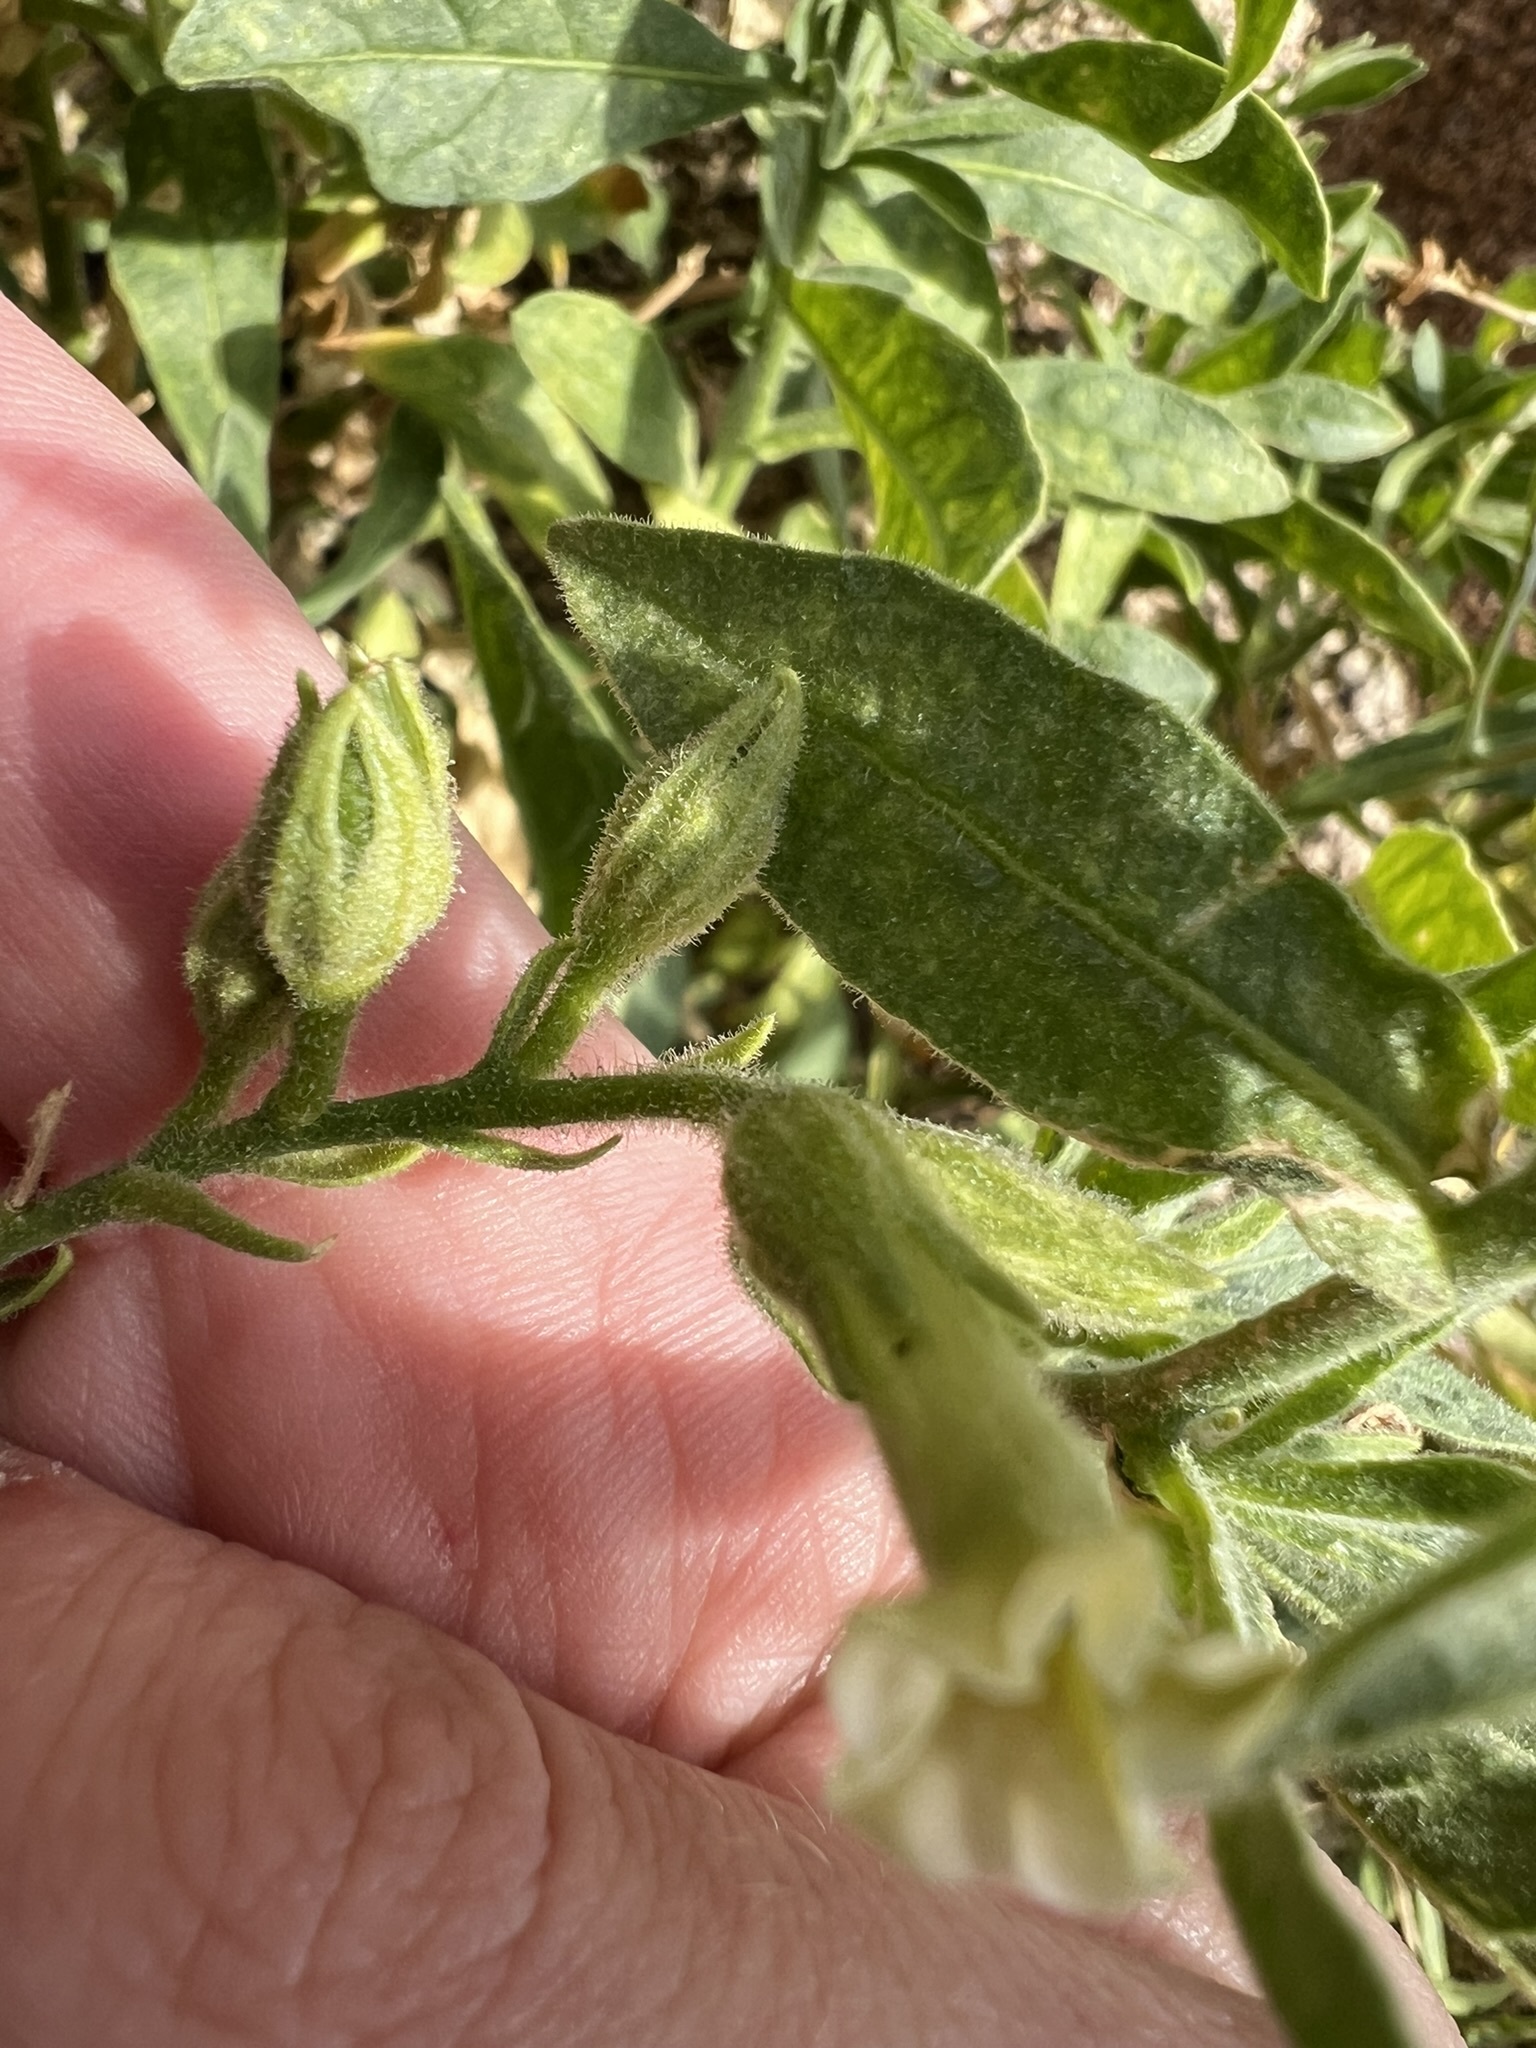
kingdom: Plantae
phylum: Tracheophyta
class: Magnoliopsida
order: Solanales
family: Solanaceae
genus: Nicotiana
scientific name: Nicotiana obtusifolia
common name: Desert tobacco
